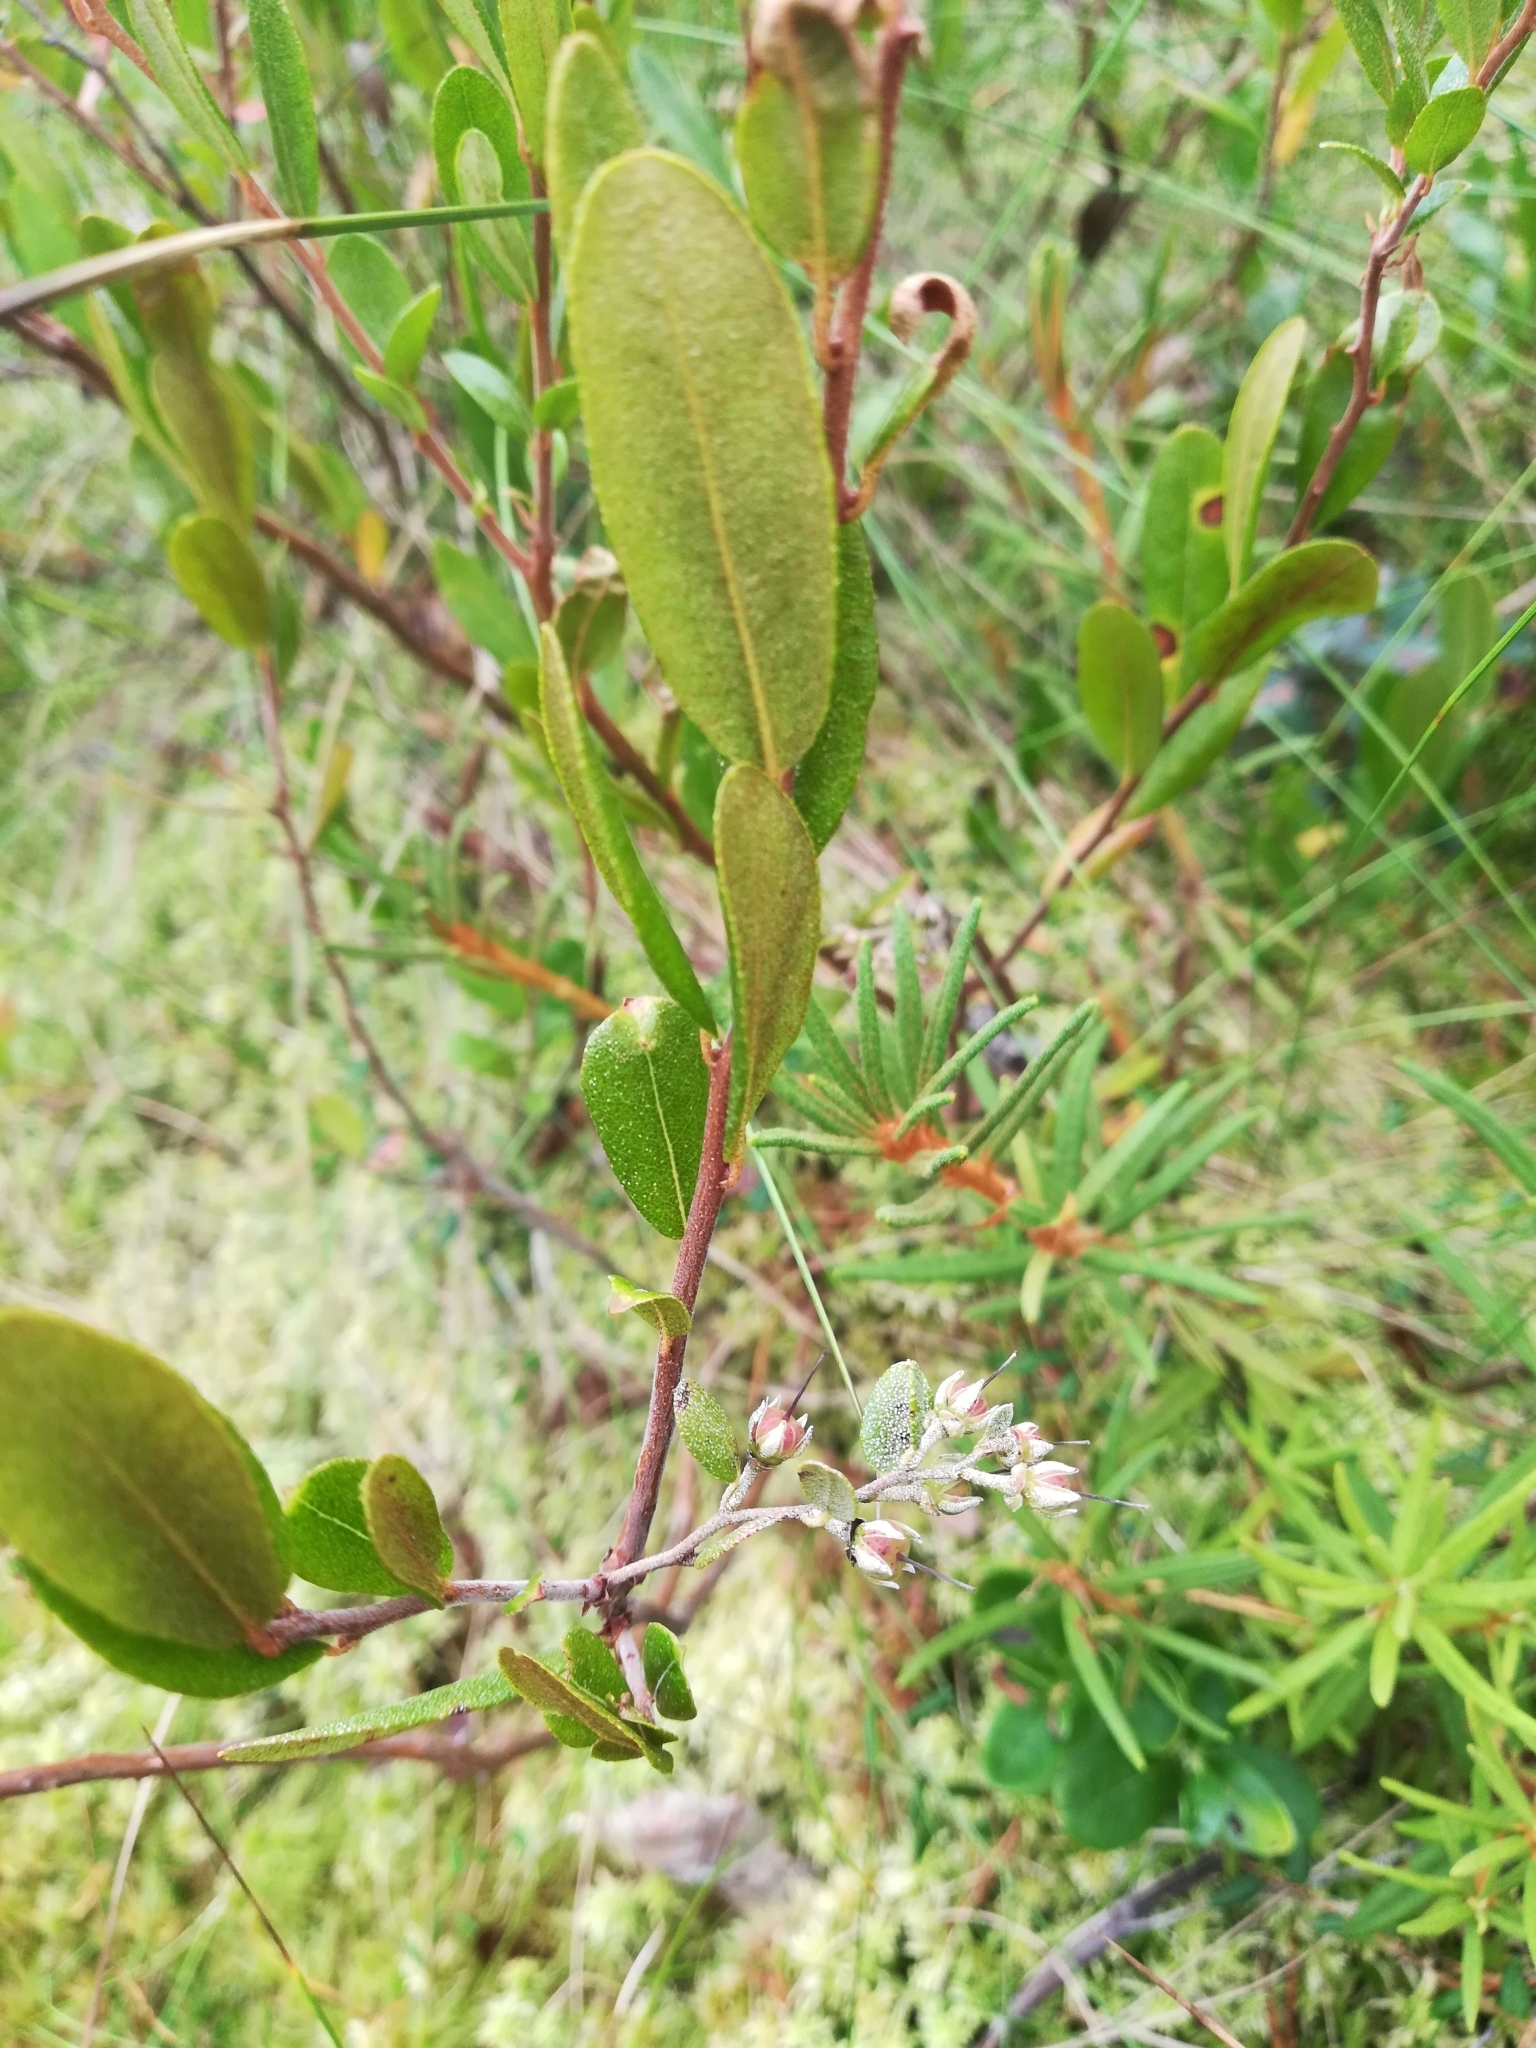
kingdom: Plantae
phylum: Tracheophyta
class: Magnoliopsida
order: Ericales
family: Ericaceae
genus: Chamaedaphne
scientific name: Chamaedaphne calyculata
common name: Leatherleaf
